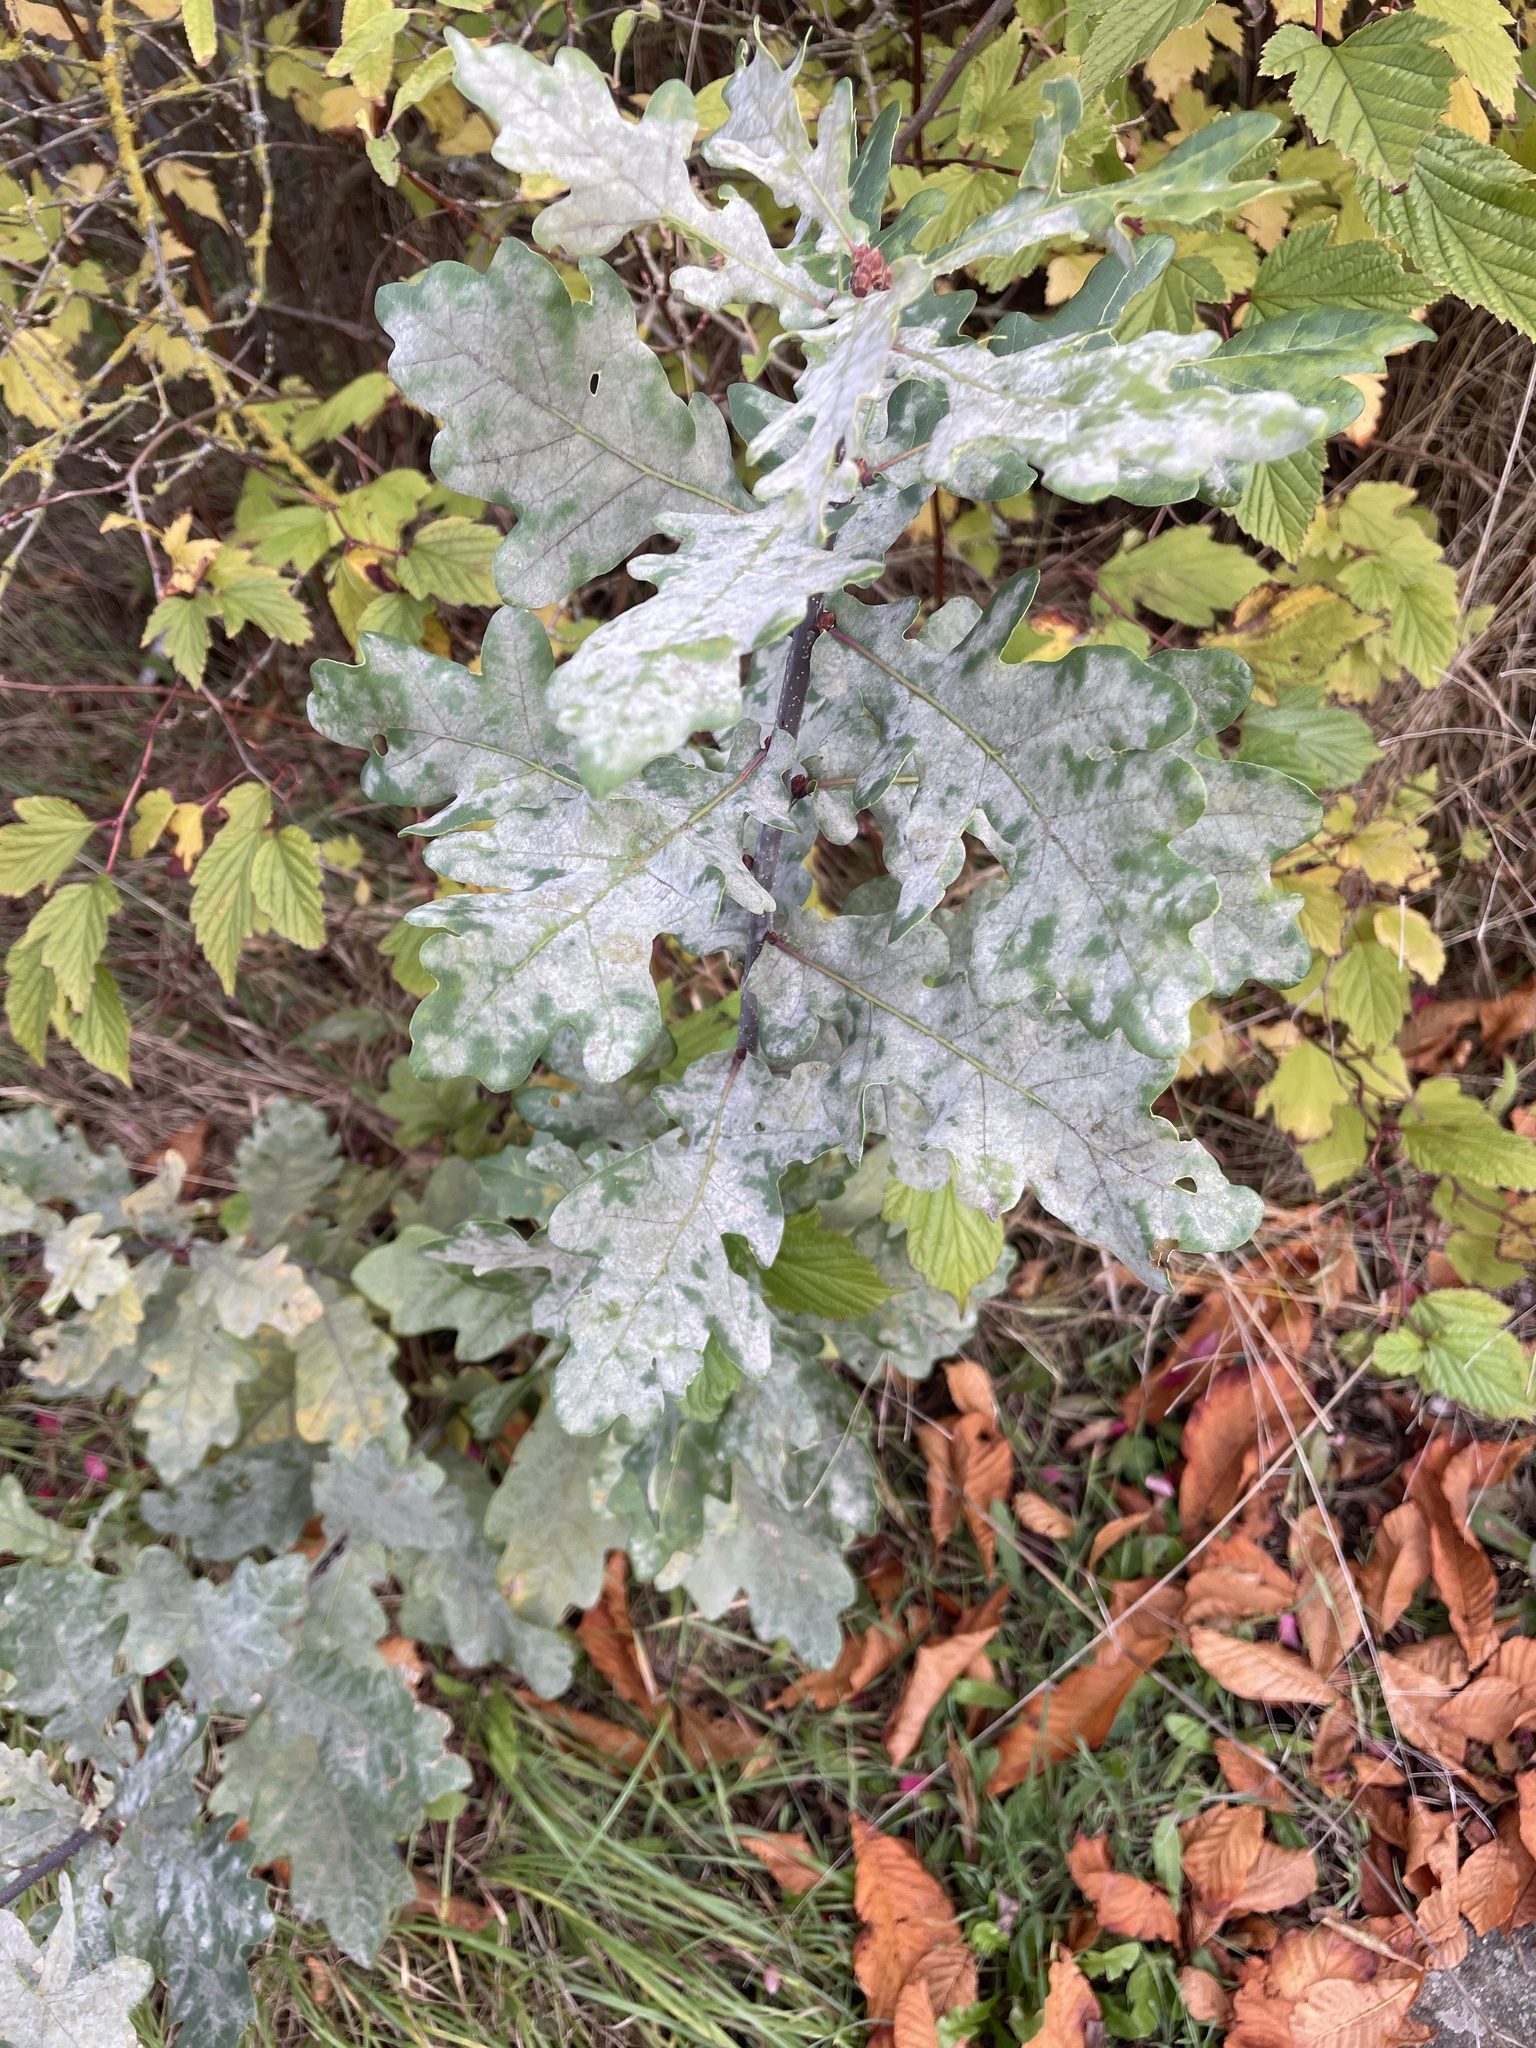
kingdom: Plantae
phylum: Tracheophyta
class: Magnoliopsida
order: Fagales
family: Fagaceae
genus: Quercus
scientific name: Quercus robur
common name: Pedunculate oak
